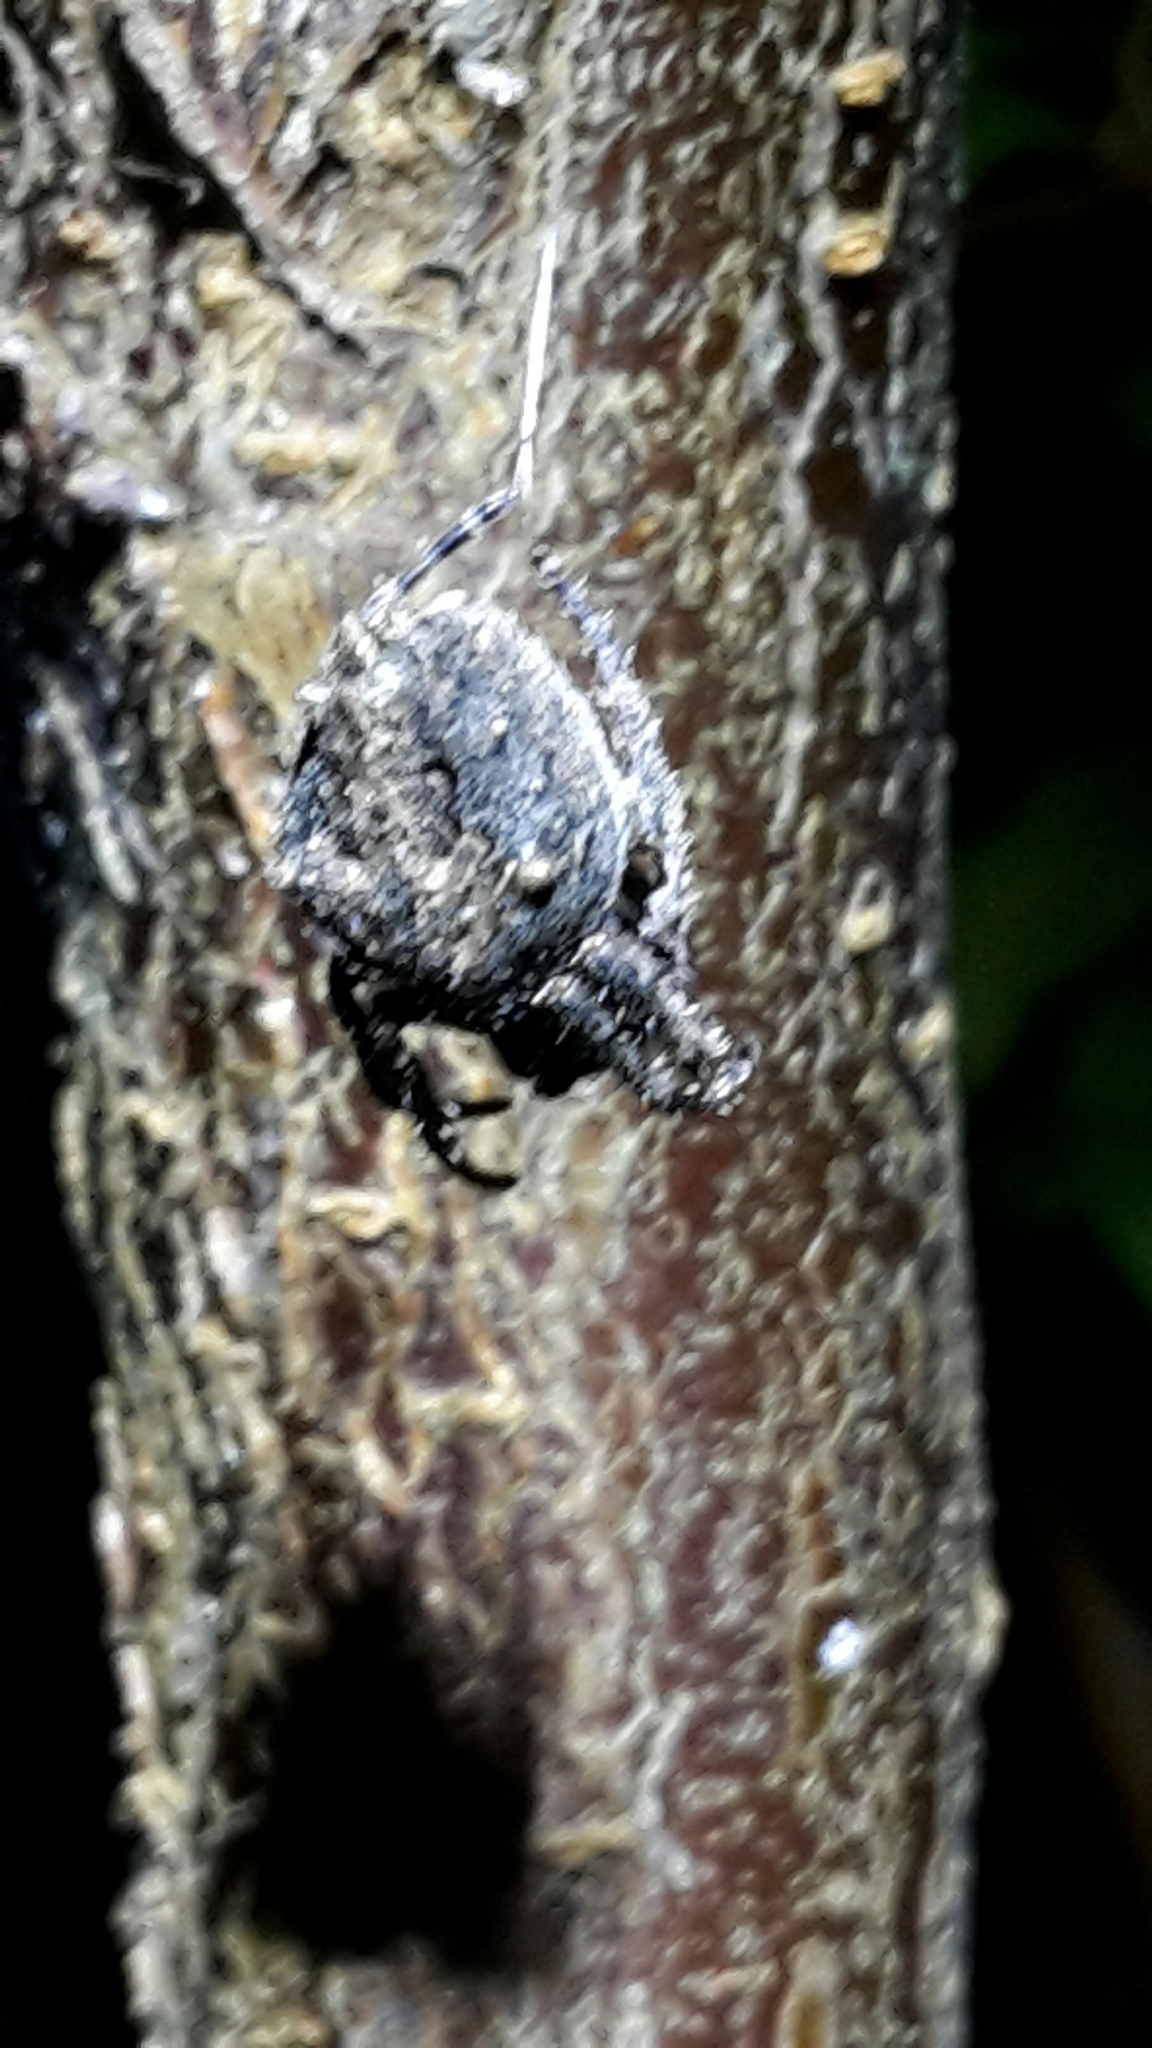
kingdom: Animalia
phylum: Arthropoda
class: Arachnida
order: Araneae
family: Araneidae
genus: Eriophora
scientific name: Eriophora pustulosa
